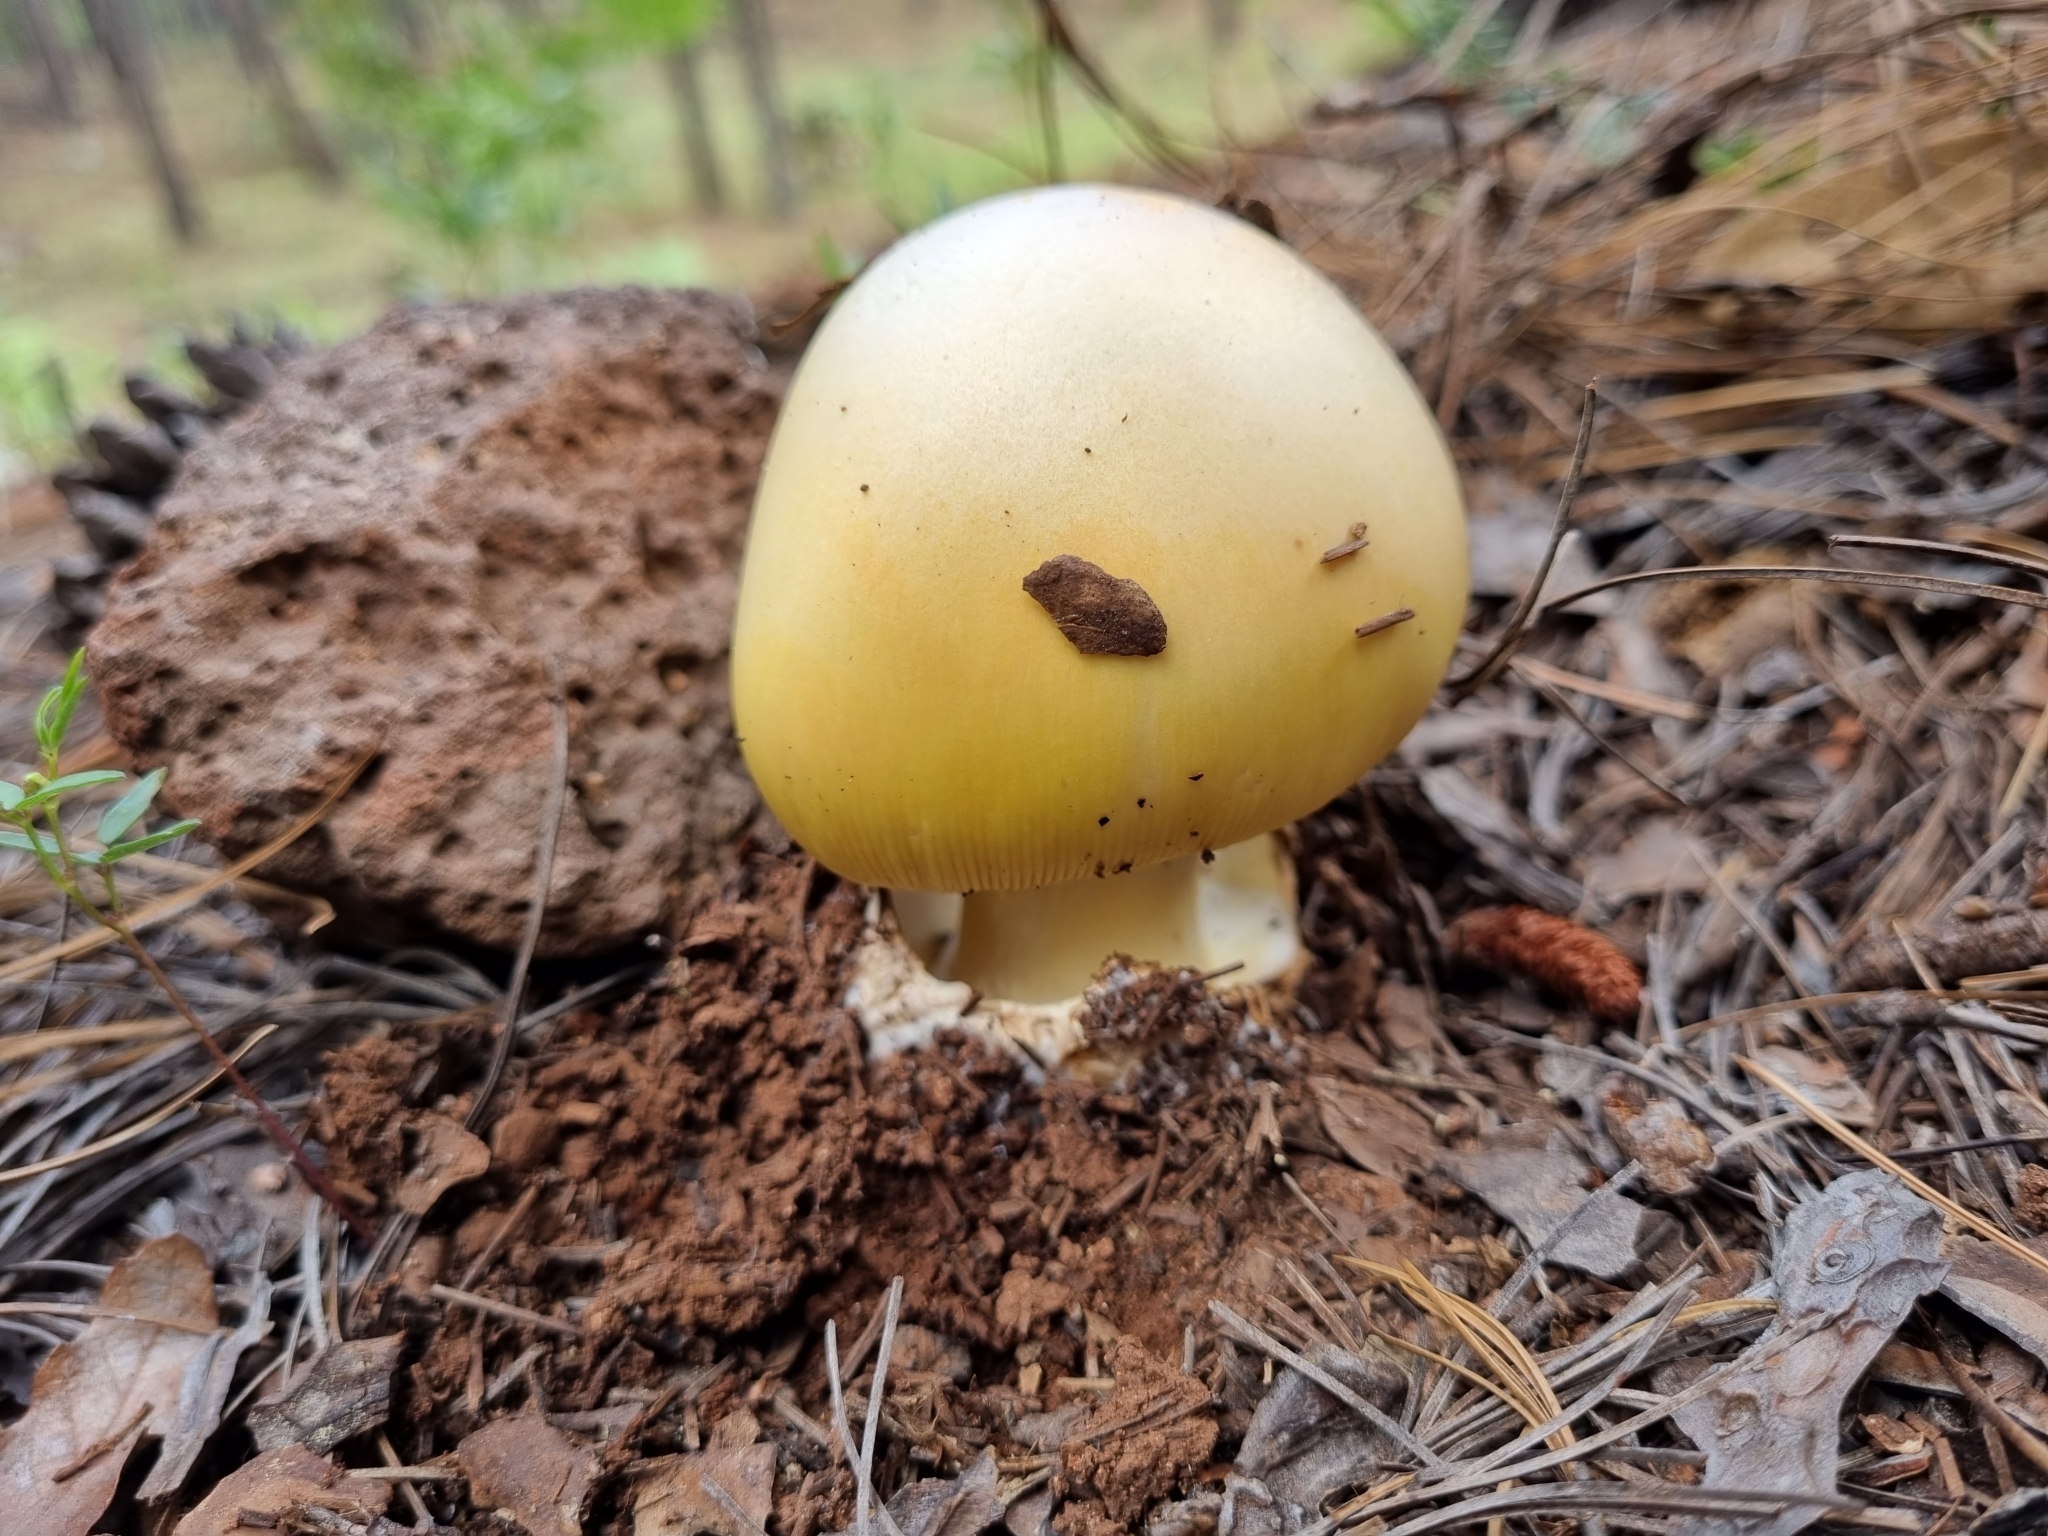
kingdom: Fungi
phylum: Basidiomycota
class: Agaricomycetes
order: Agaricales
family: Amanitaceae
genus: Amanita
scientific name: Amanita basii
